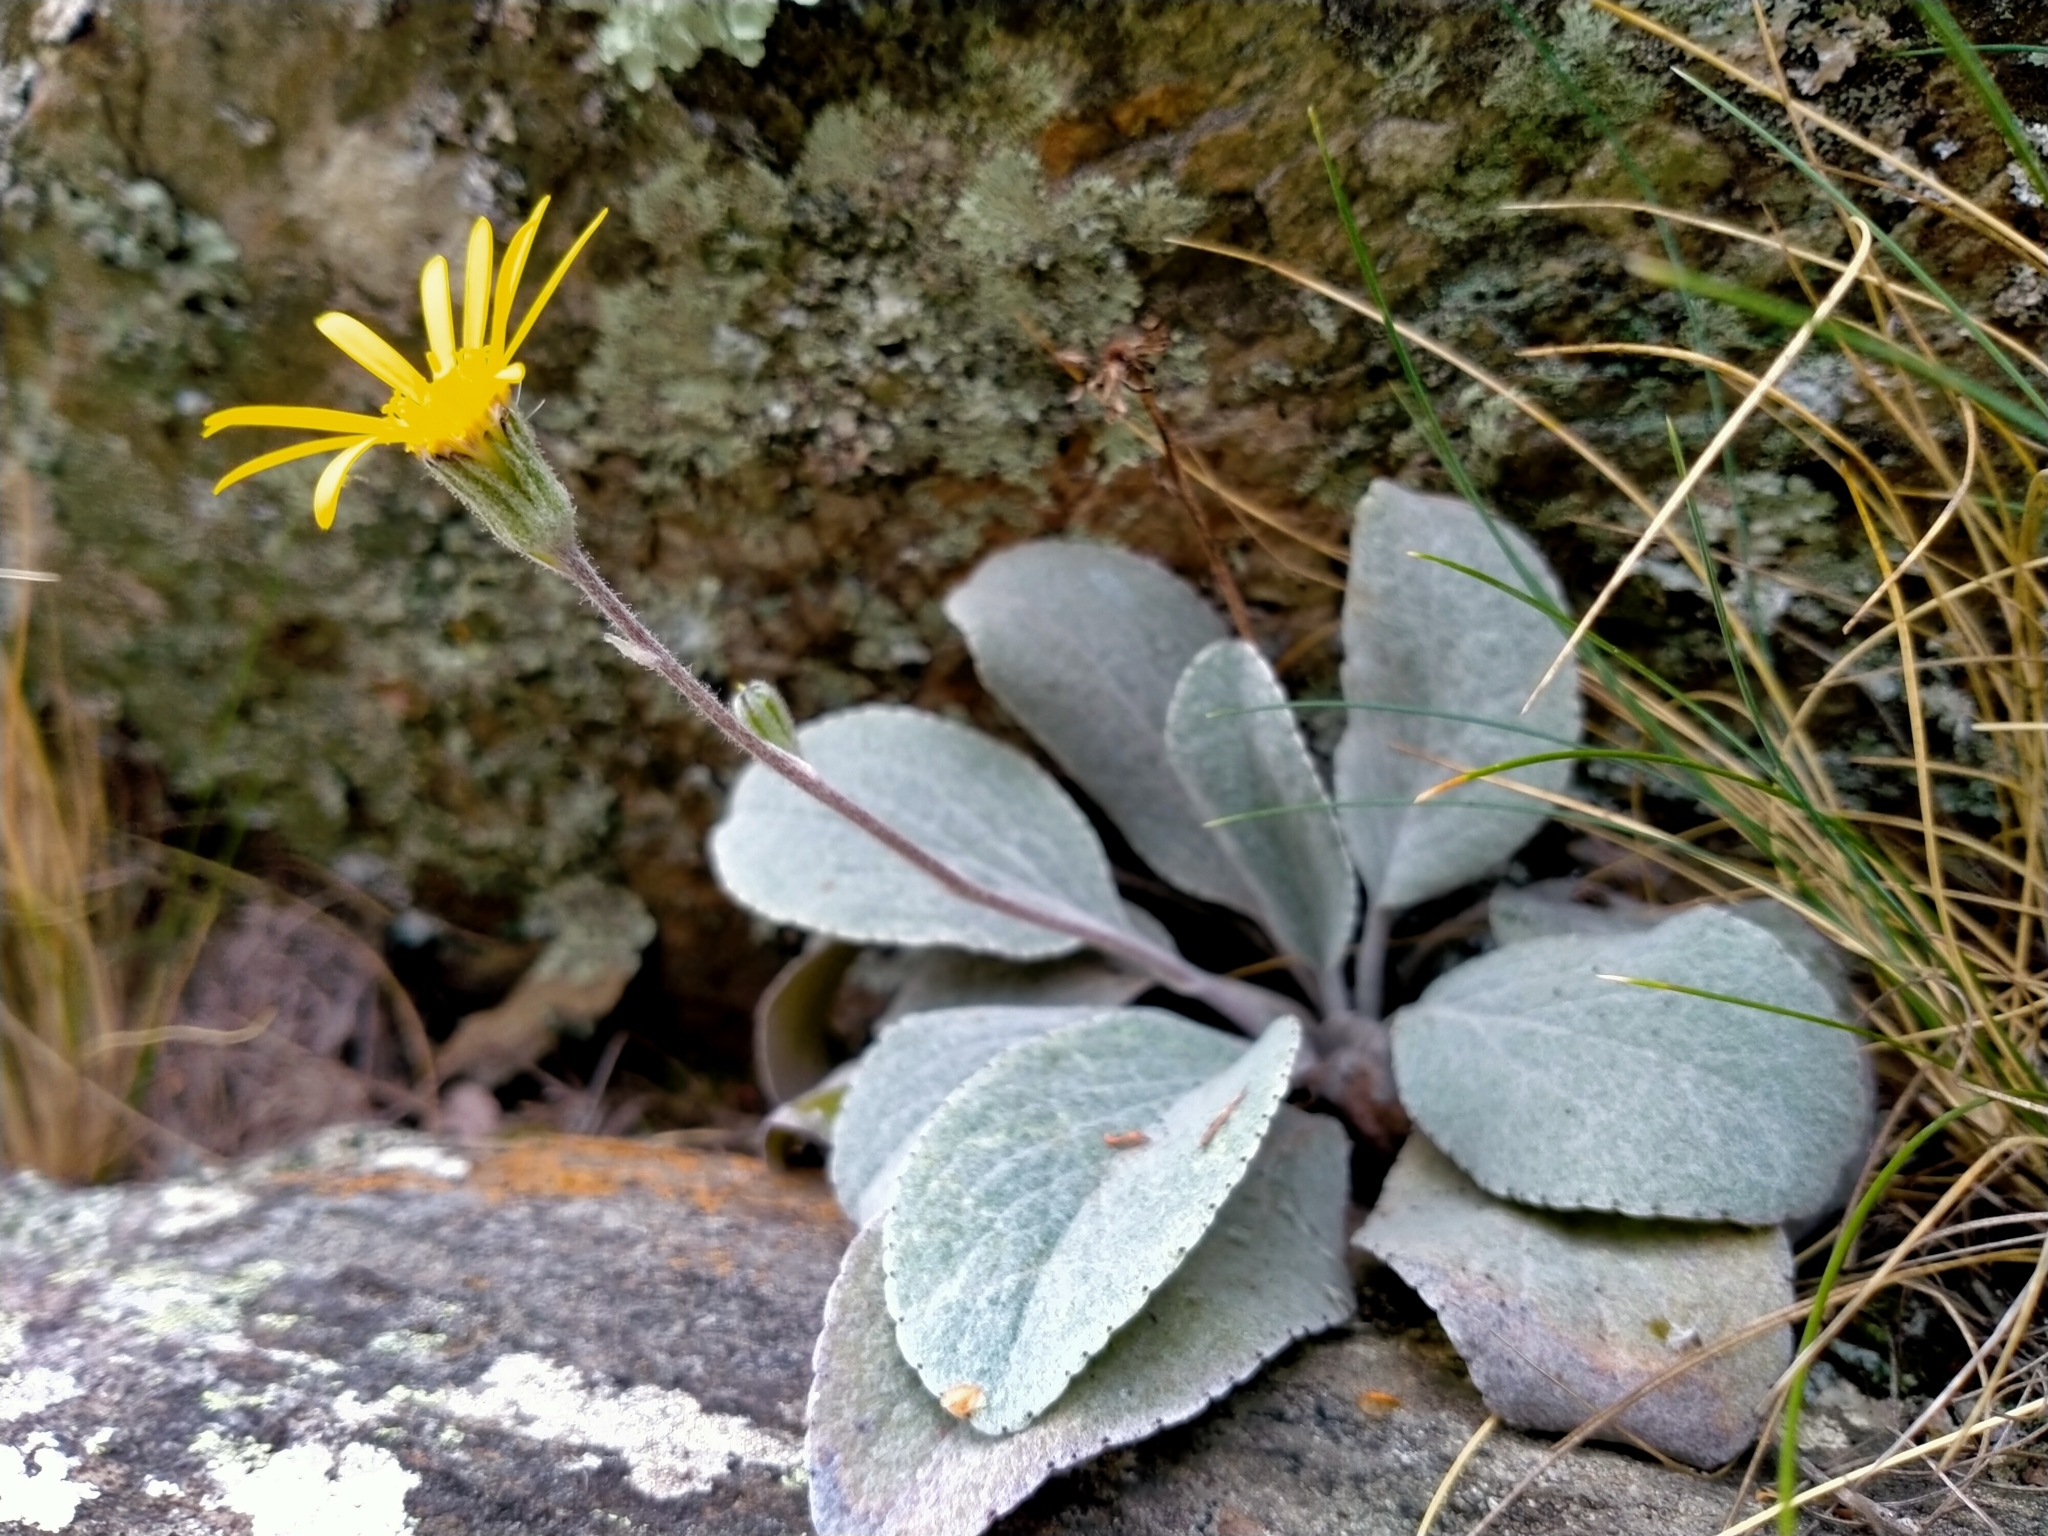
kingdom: Plantae
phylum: Tracheophyta
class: Magnoliopsida
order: Asterales
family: Asteraceae
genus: Brachyglottis
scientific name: Brachyglottis haastii
